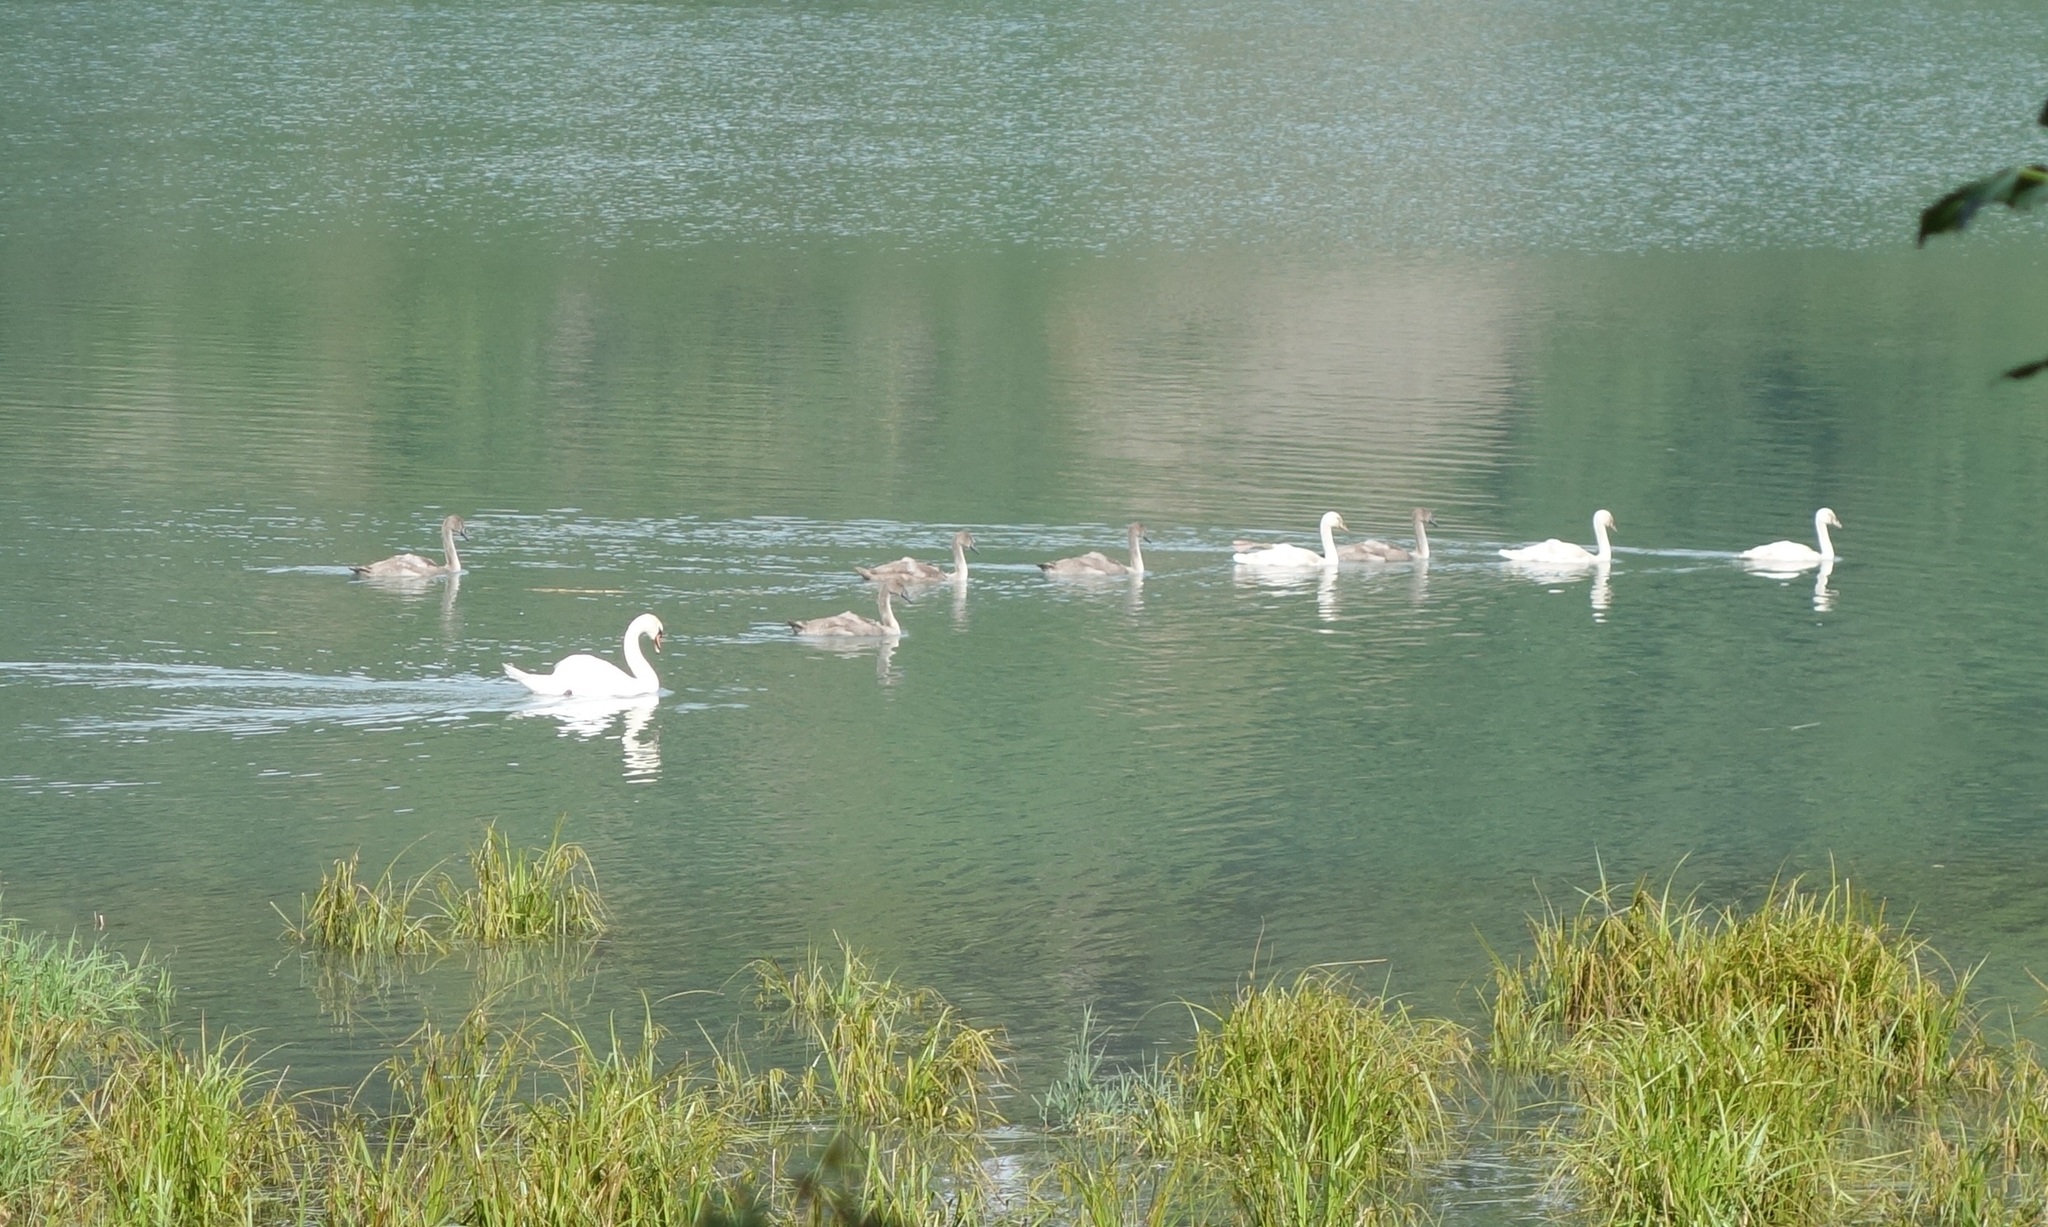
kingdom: Animalia
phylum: Chordata
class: Aves
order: Anseriformes
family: Anatidae
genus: Cygnus
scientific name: Cygnus olor
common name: Mute swan
